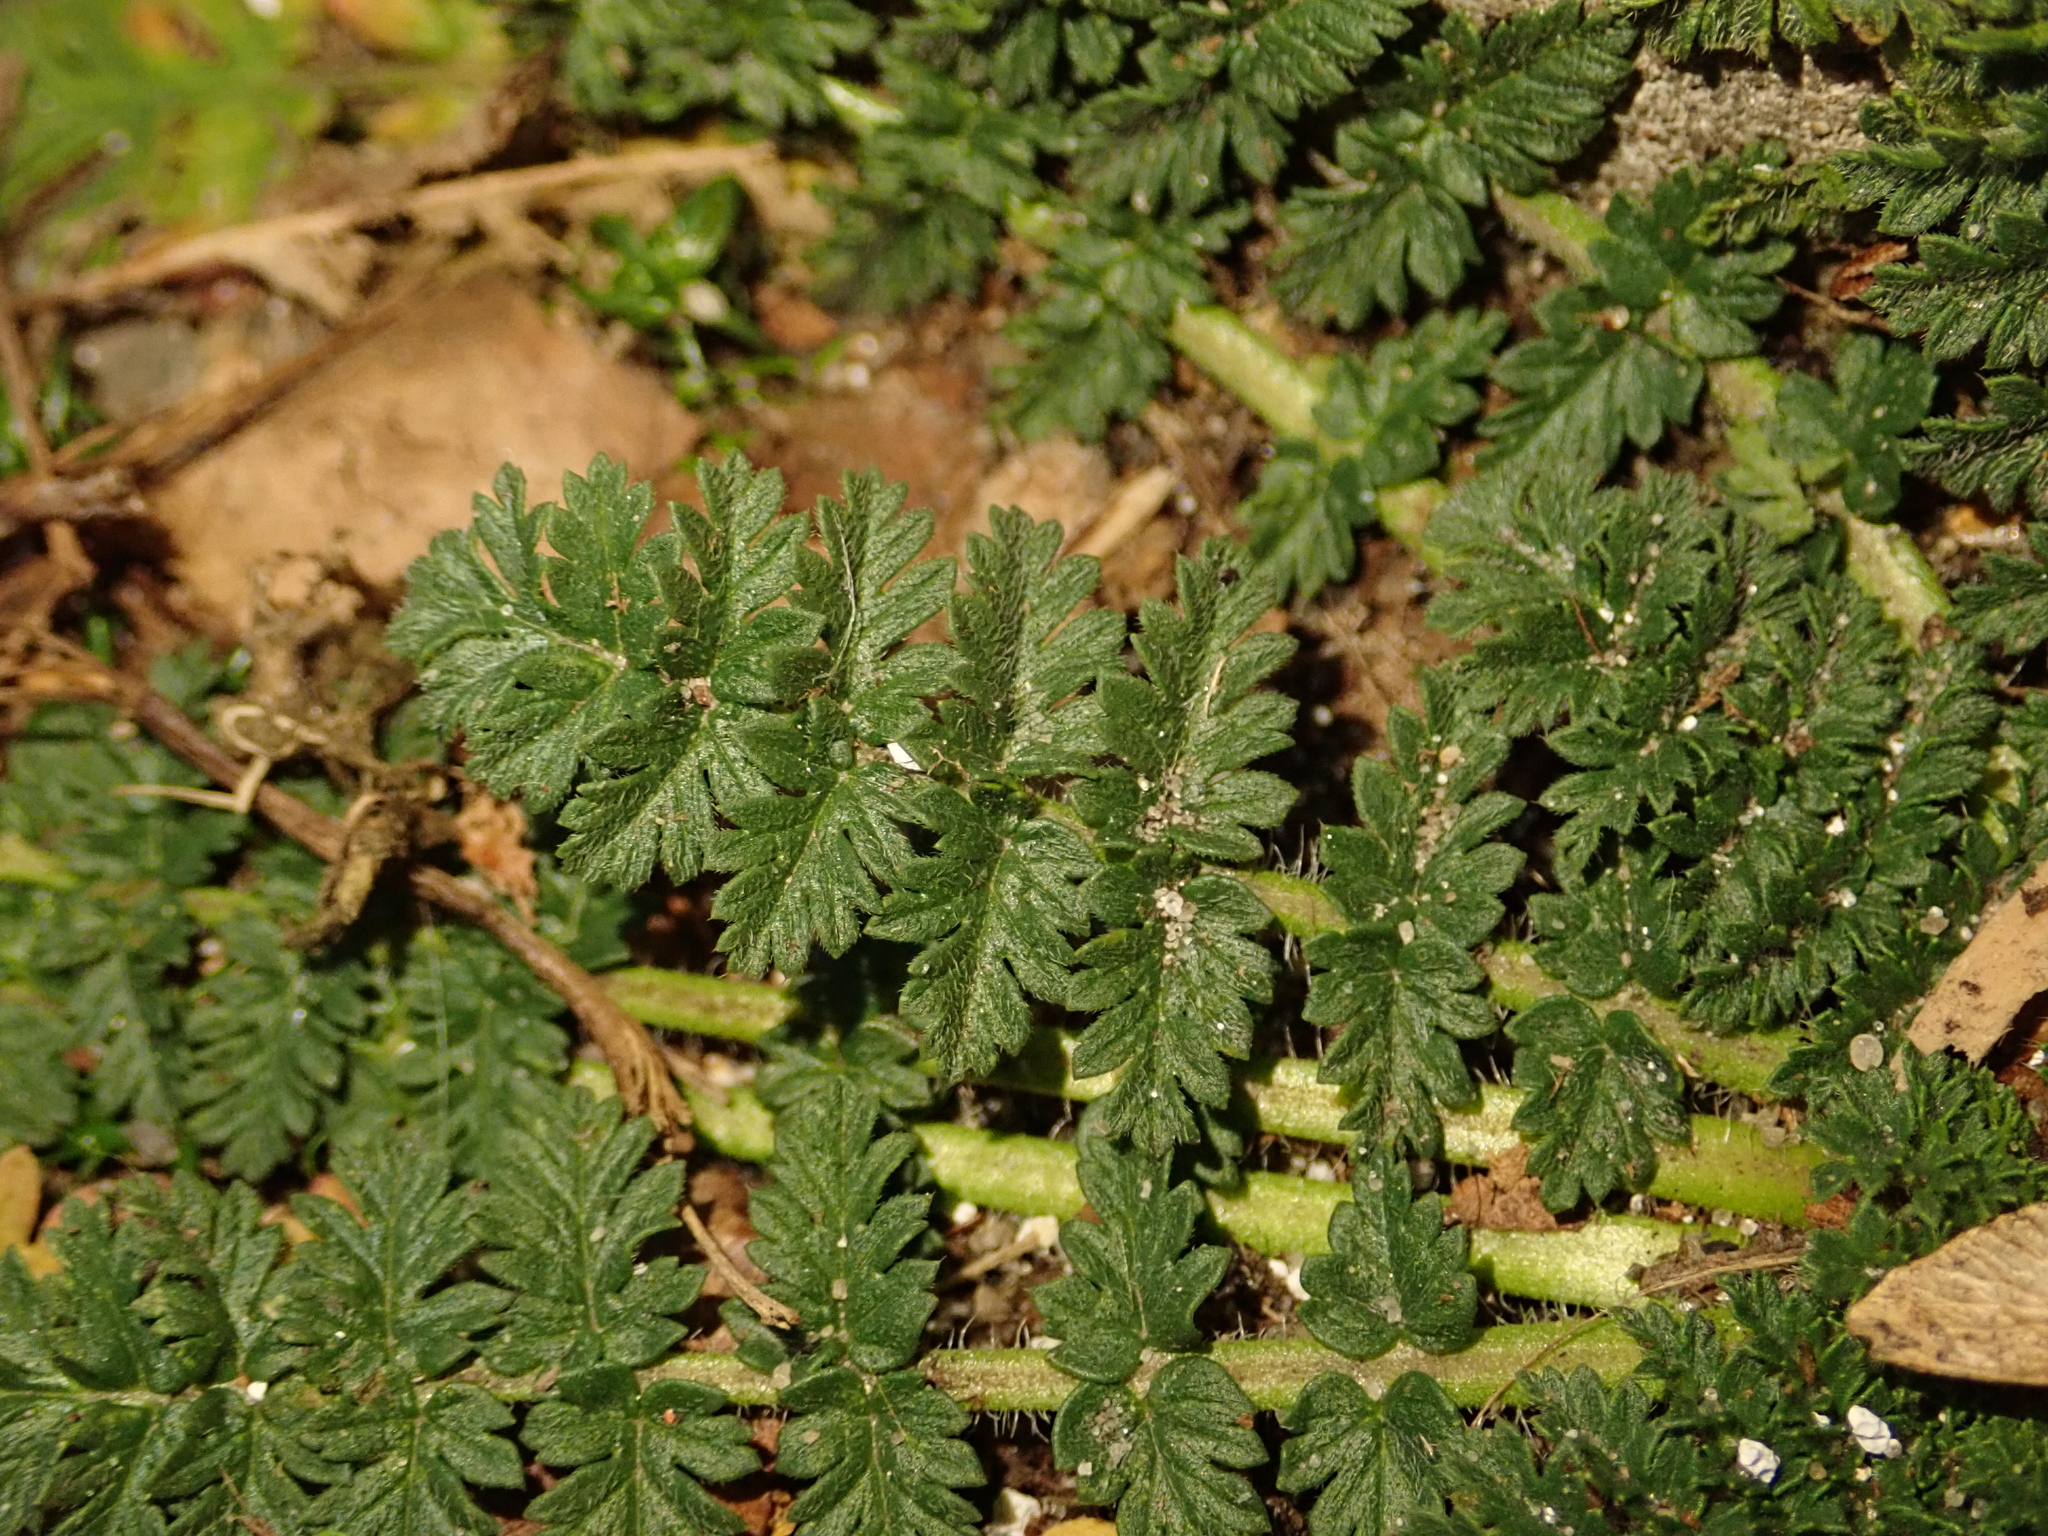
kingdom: Plantae
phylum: Tracheophyta
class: Magnoliopsida
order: Geraniales
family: Geraniaceae
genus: Erodium
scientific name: Erodium cicutarium
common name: Common stork's-bill
